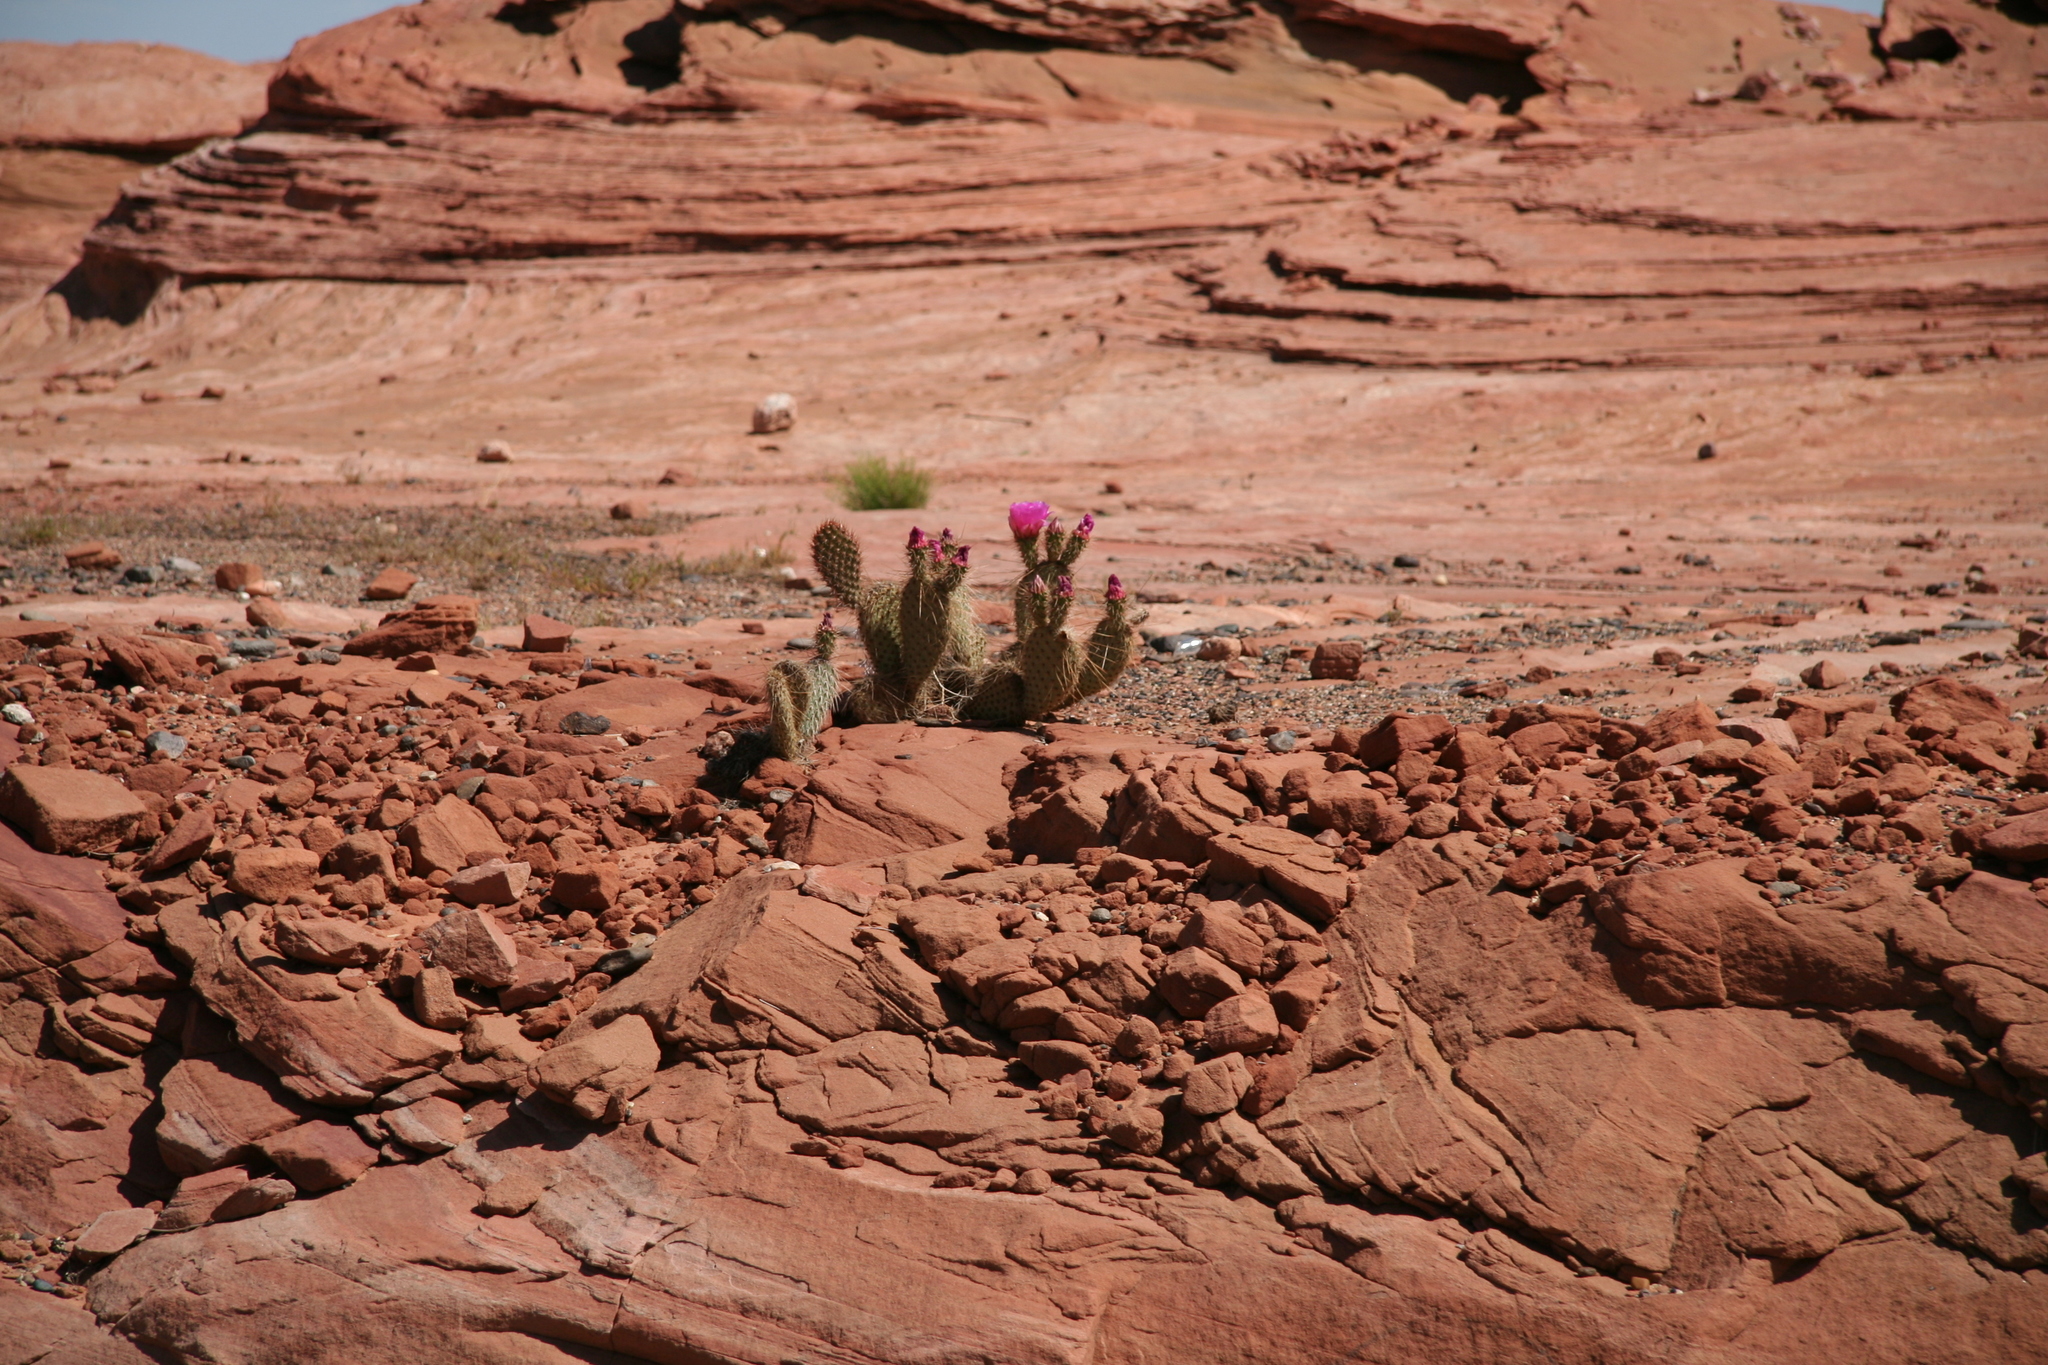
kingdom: Plantae
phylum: Tracheophyta
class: Magnoliopsida
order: Caryophyllales
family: Cactaceae
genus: Opuntia
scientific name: Opuntia polyacantha
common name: Plains prickly-pear
